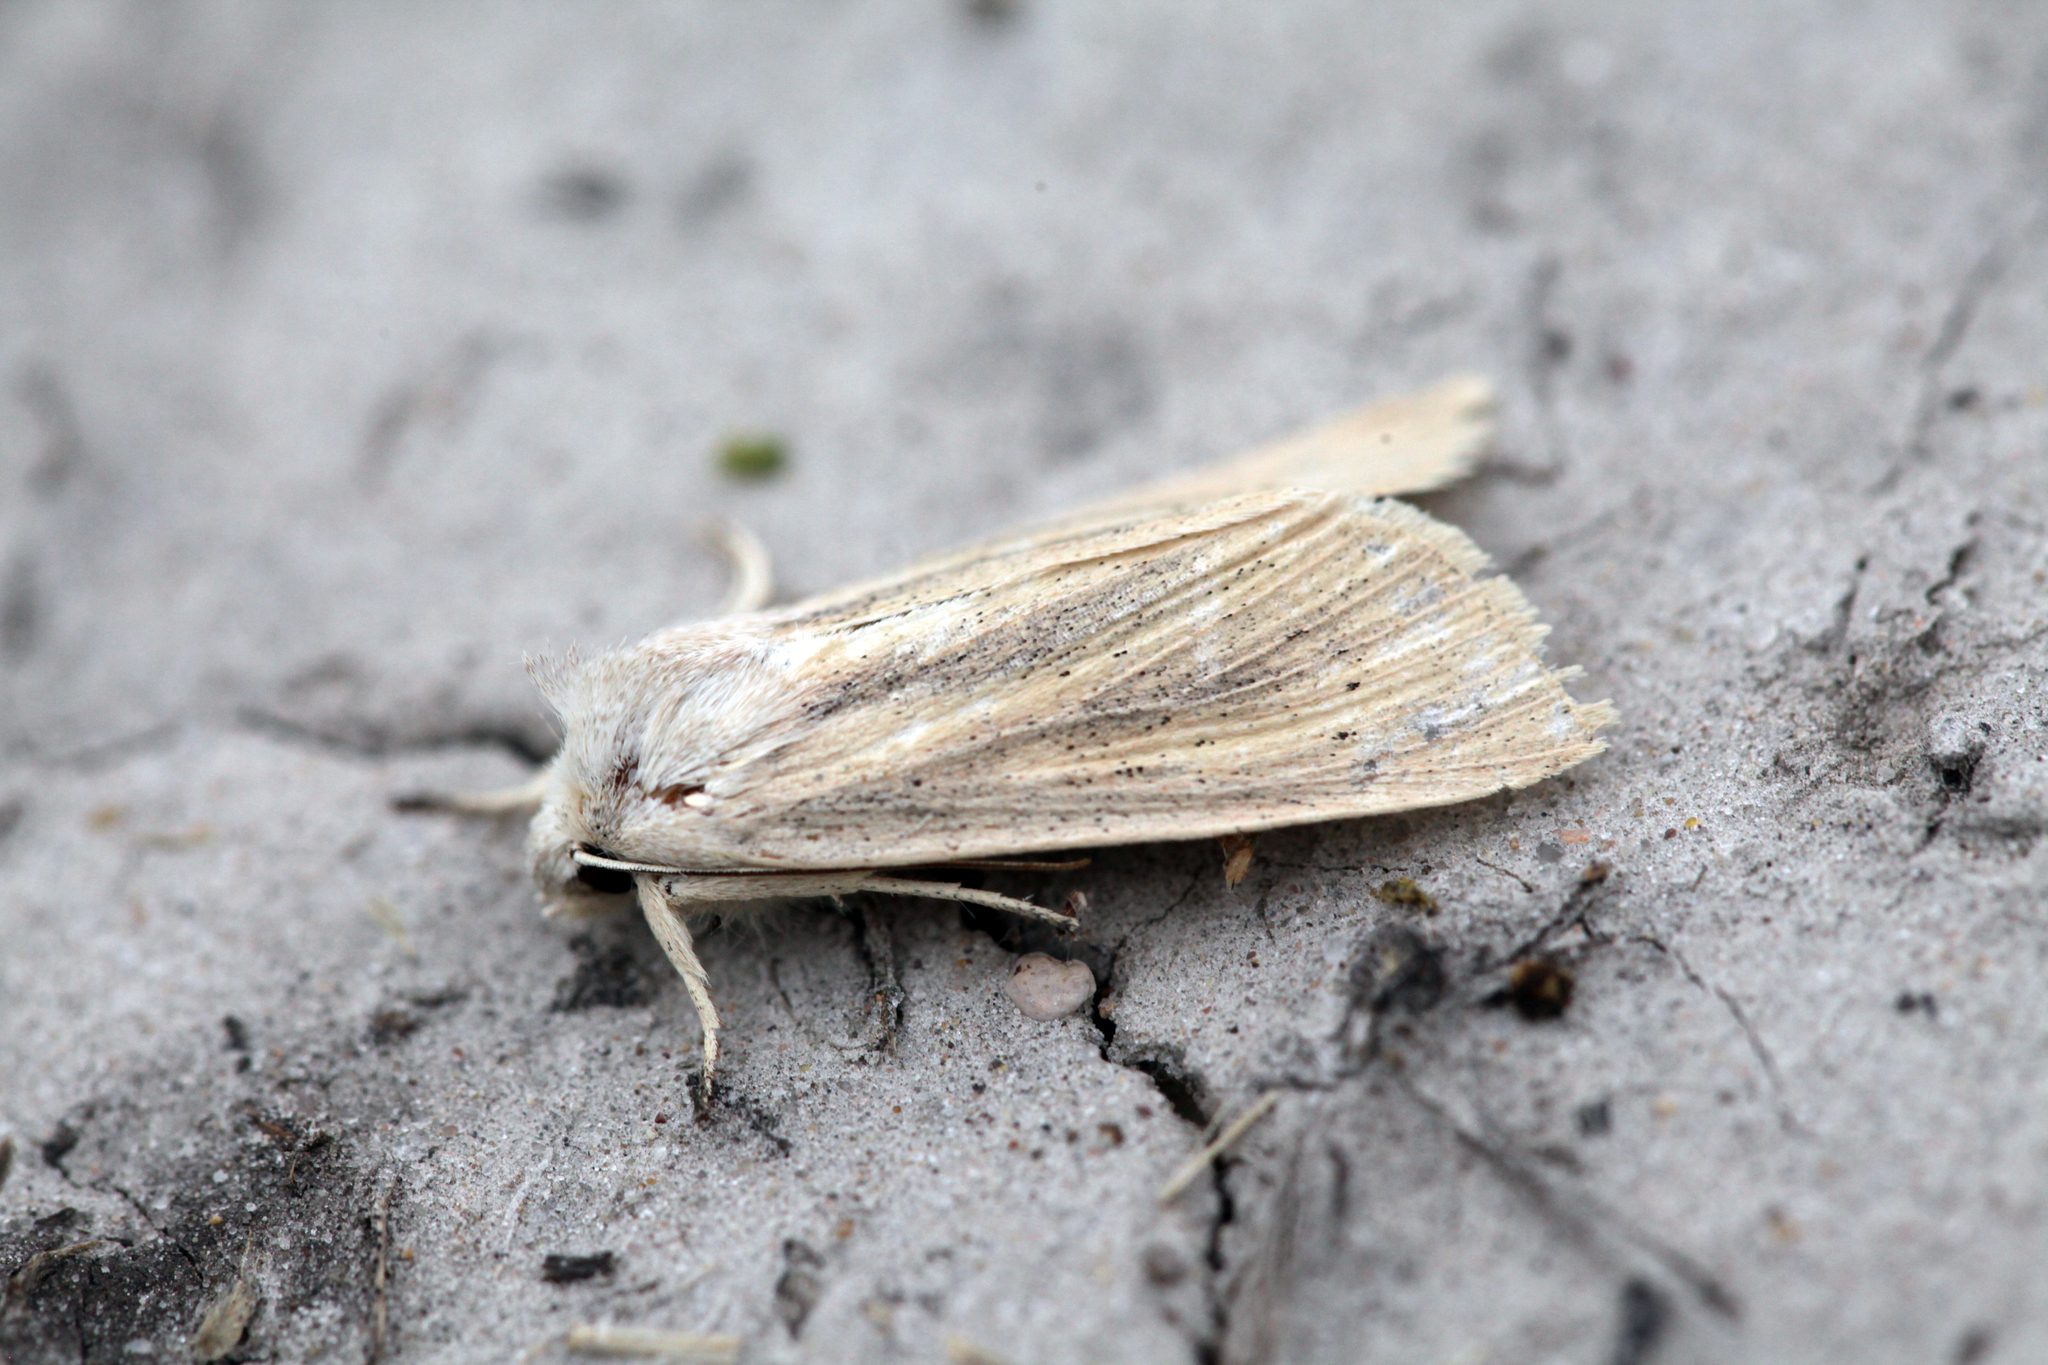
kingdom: Animalia
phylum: Arthropoda
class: Insecta
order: Lepidoptera
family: Noctuidae
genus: Rhizedra
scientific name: Rhizedra lutosa
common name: Large wainscot
